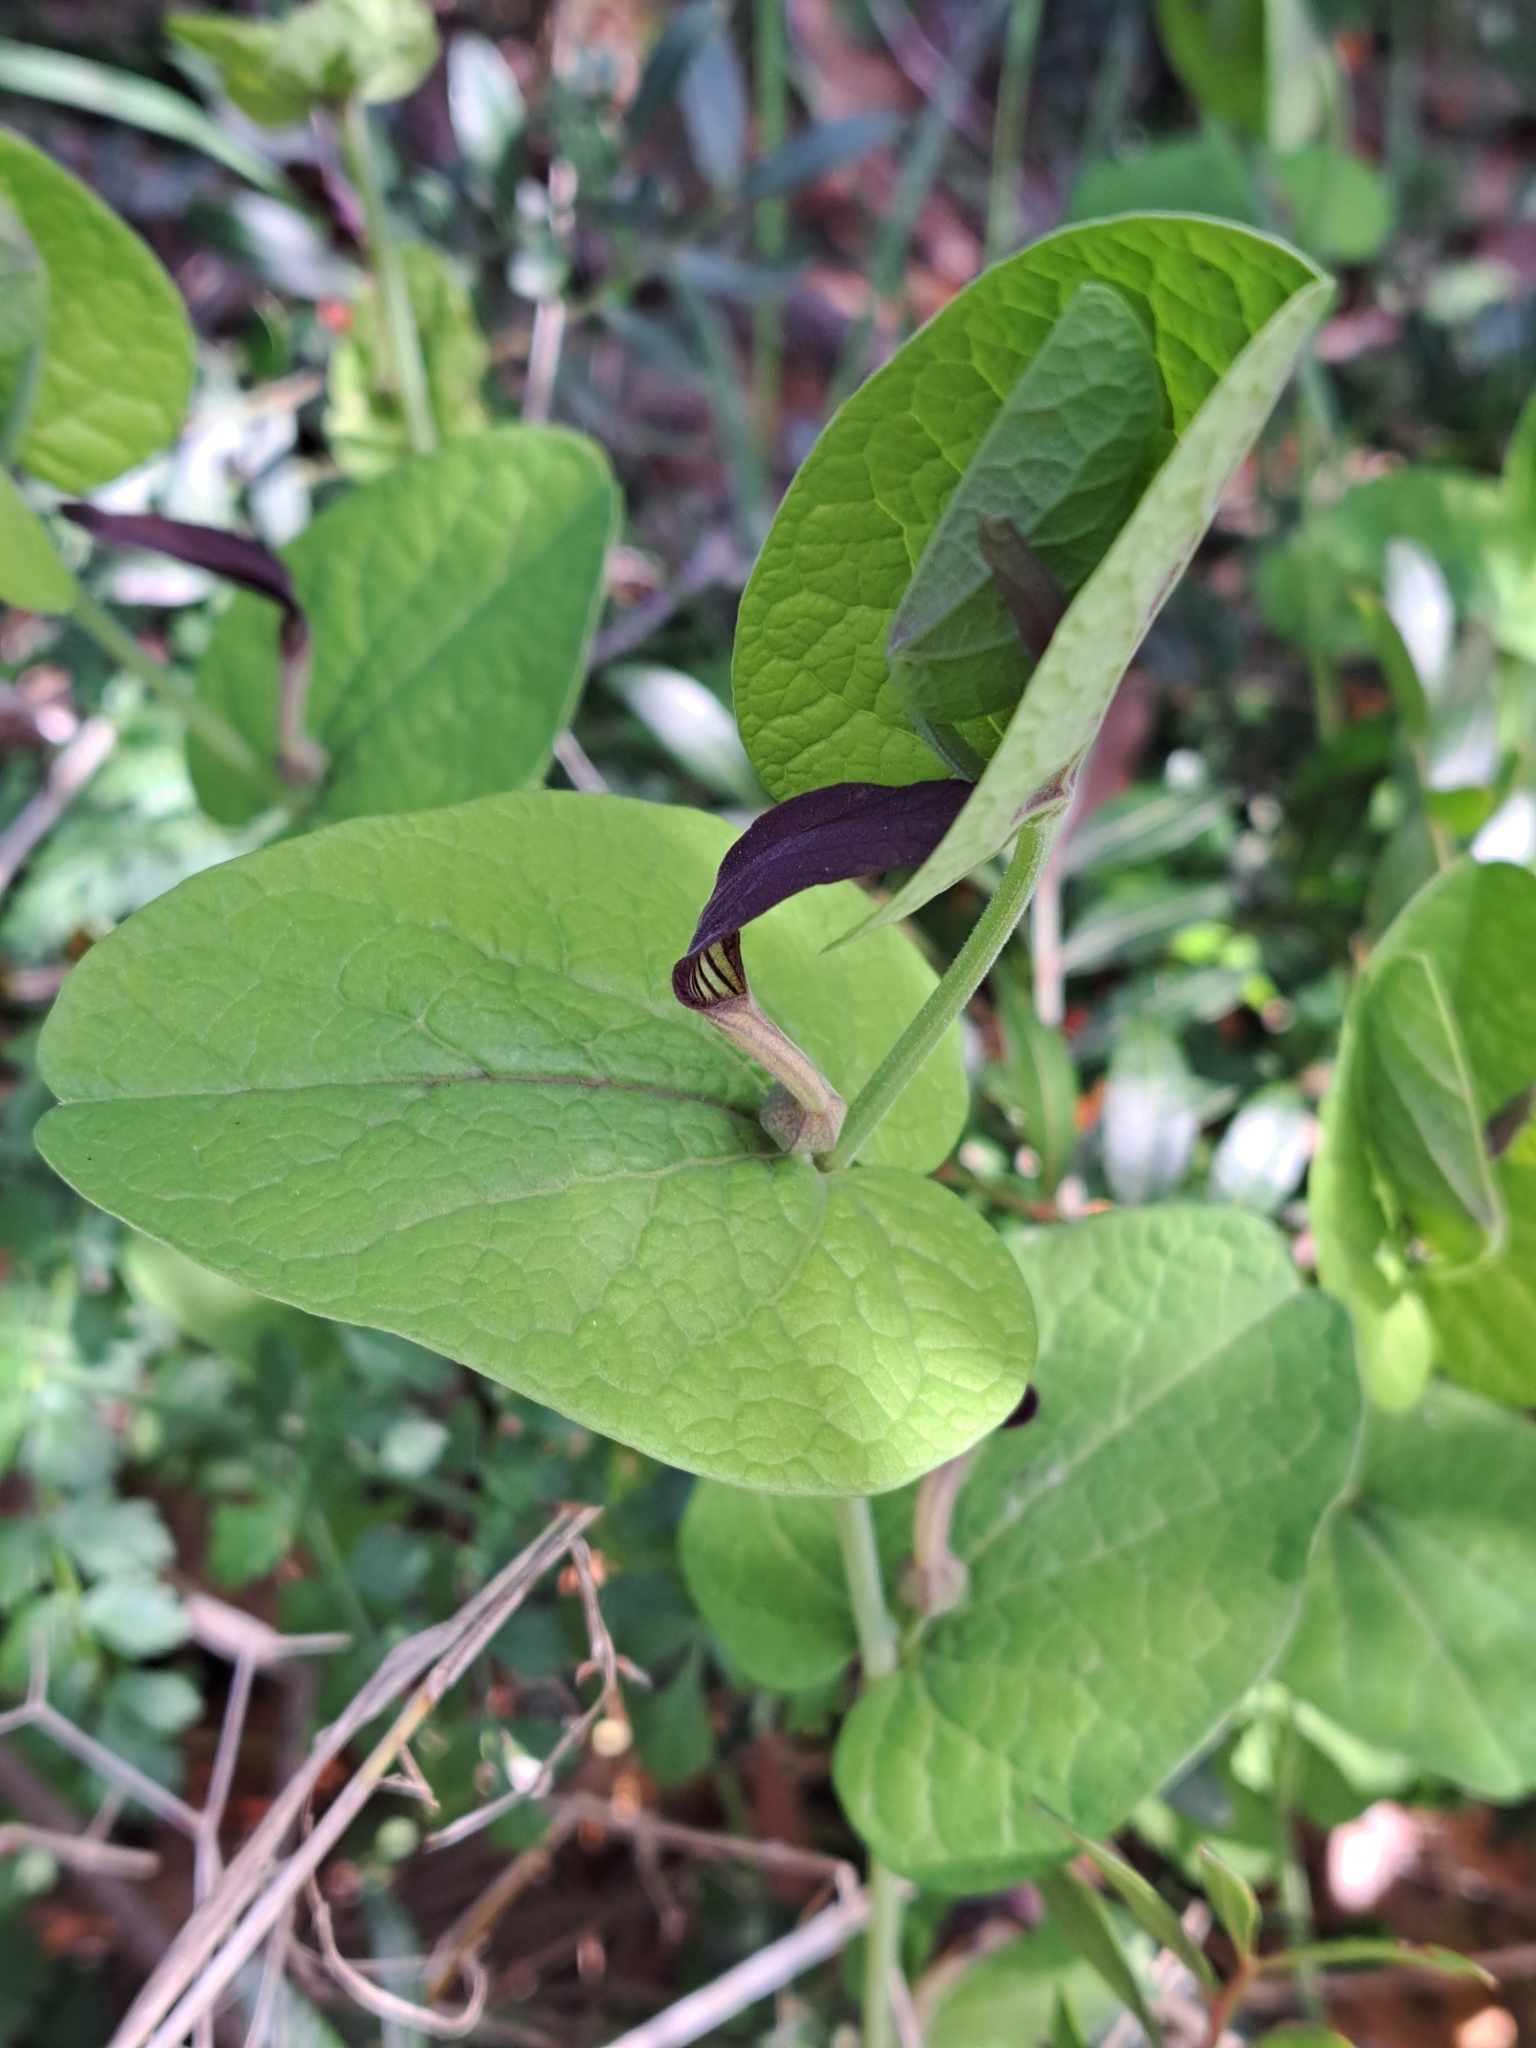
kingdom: Plantae
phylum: Tracheophyta
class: Magnoliopsida
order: Piperales
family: Aristolochiaceae
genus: Aristolochia
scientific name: Aristolochia rotunda
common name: Smearwort
